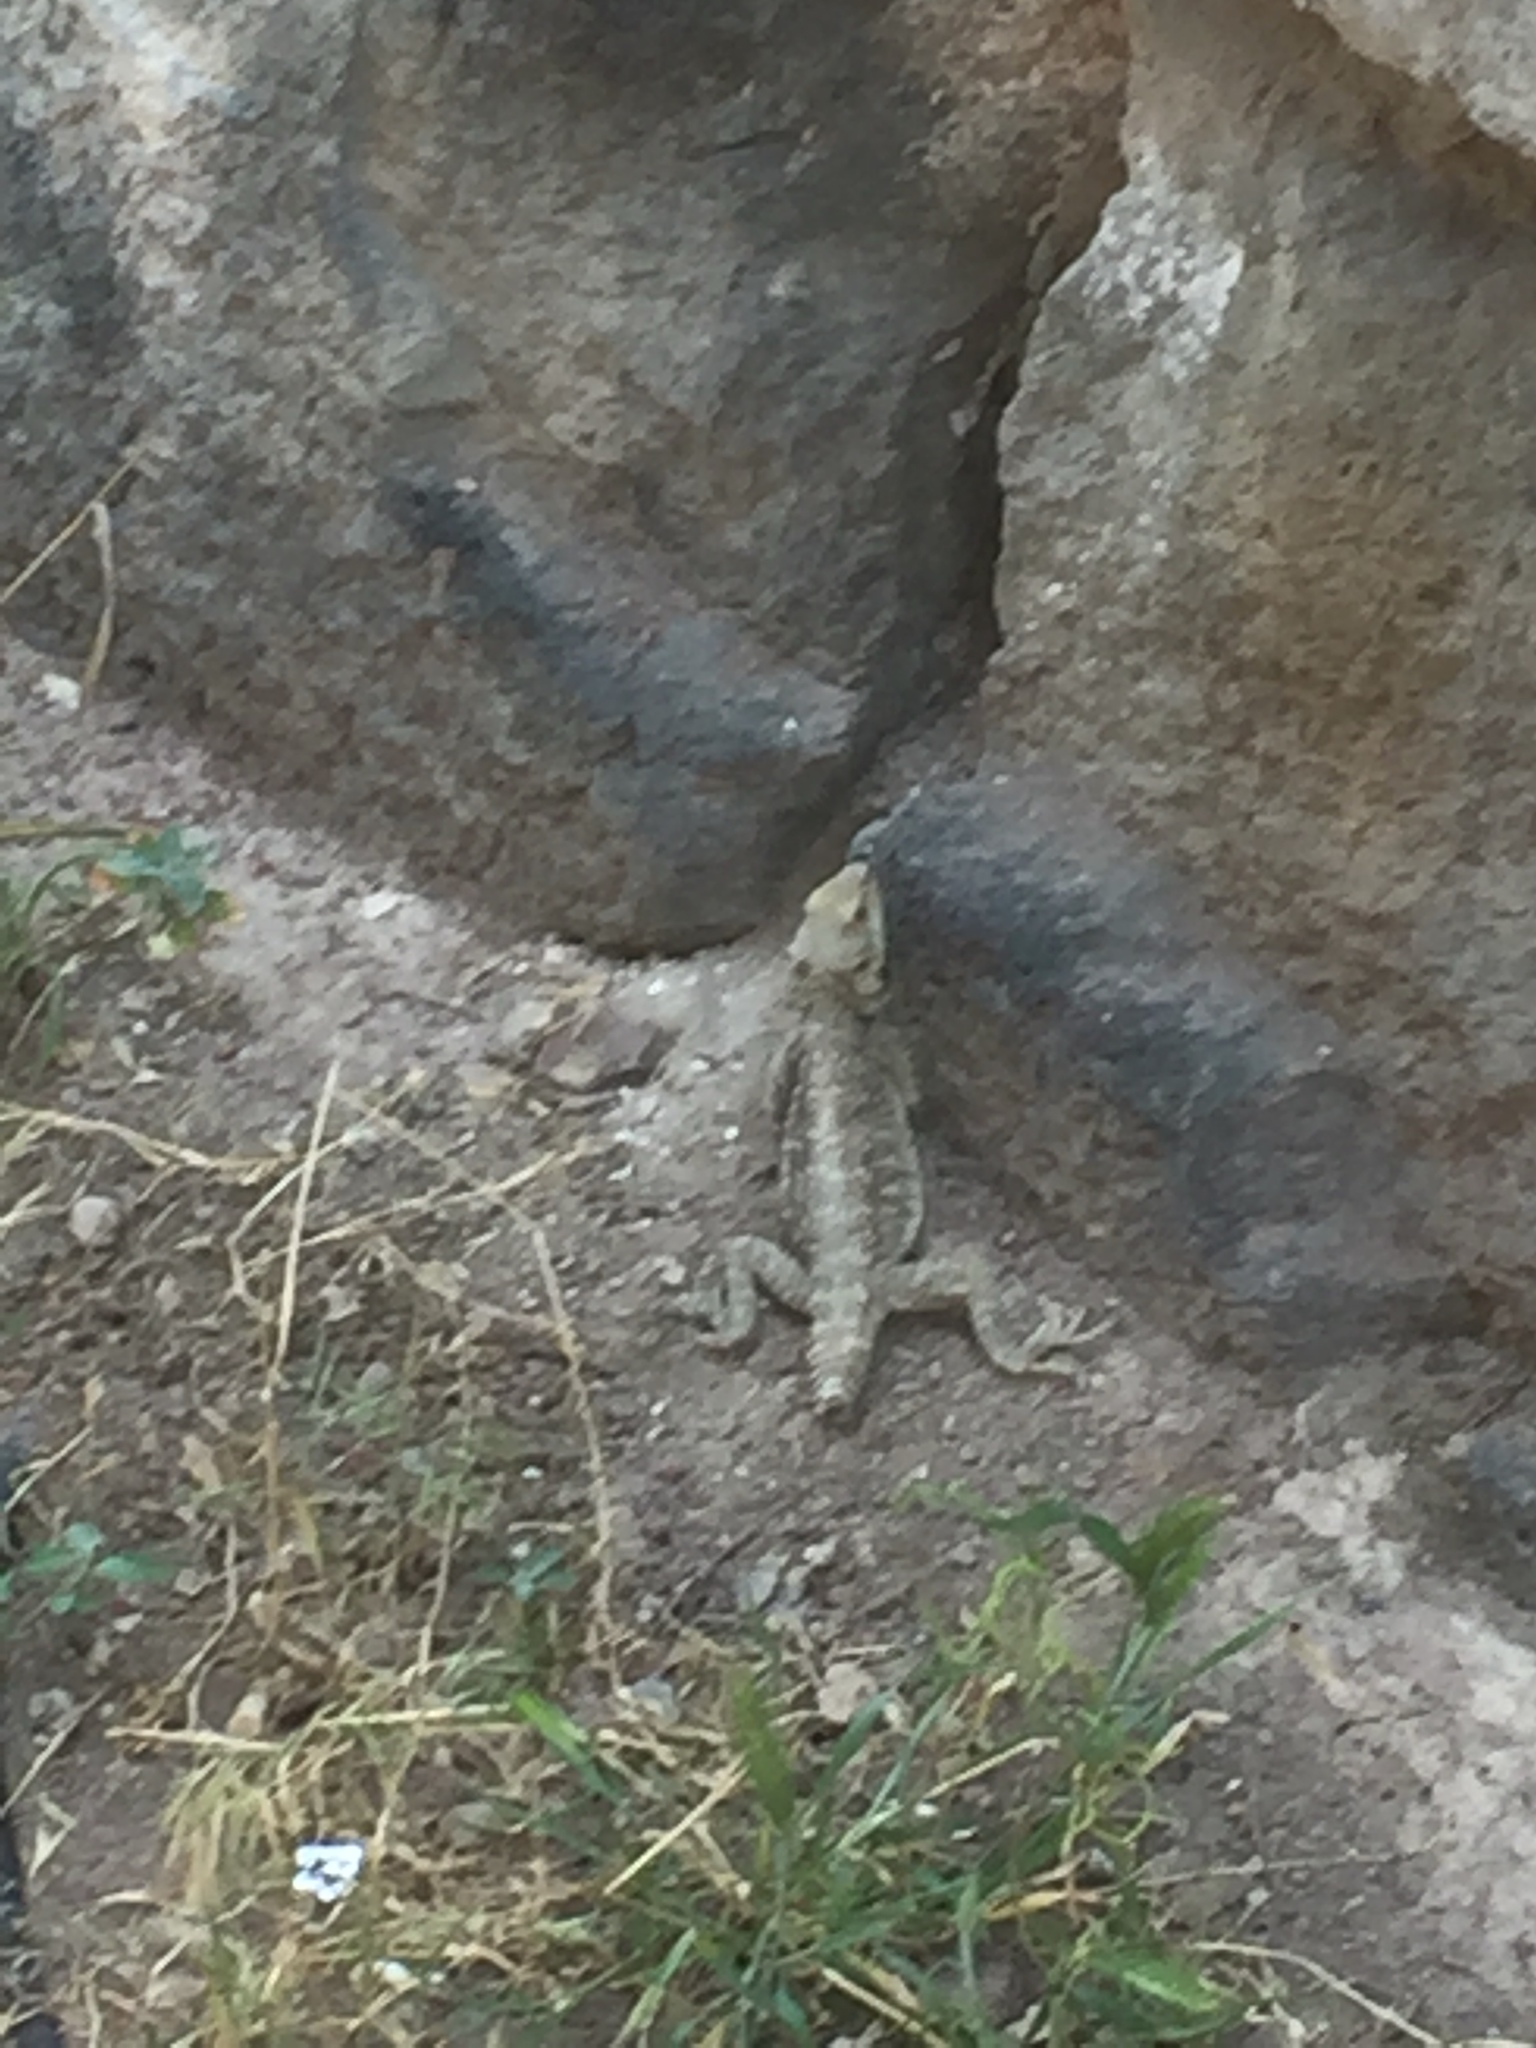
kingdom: Animalia
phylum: Chordata
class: Squamata
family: Agamidae
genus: Paralaudakia
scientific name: Paralaudakia caucasia
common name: Caucasian agama
